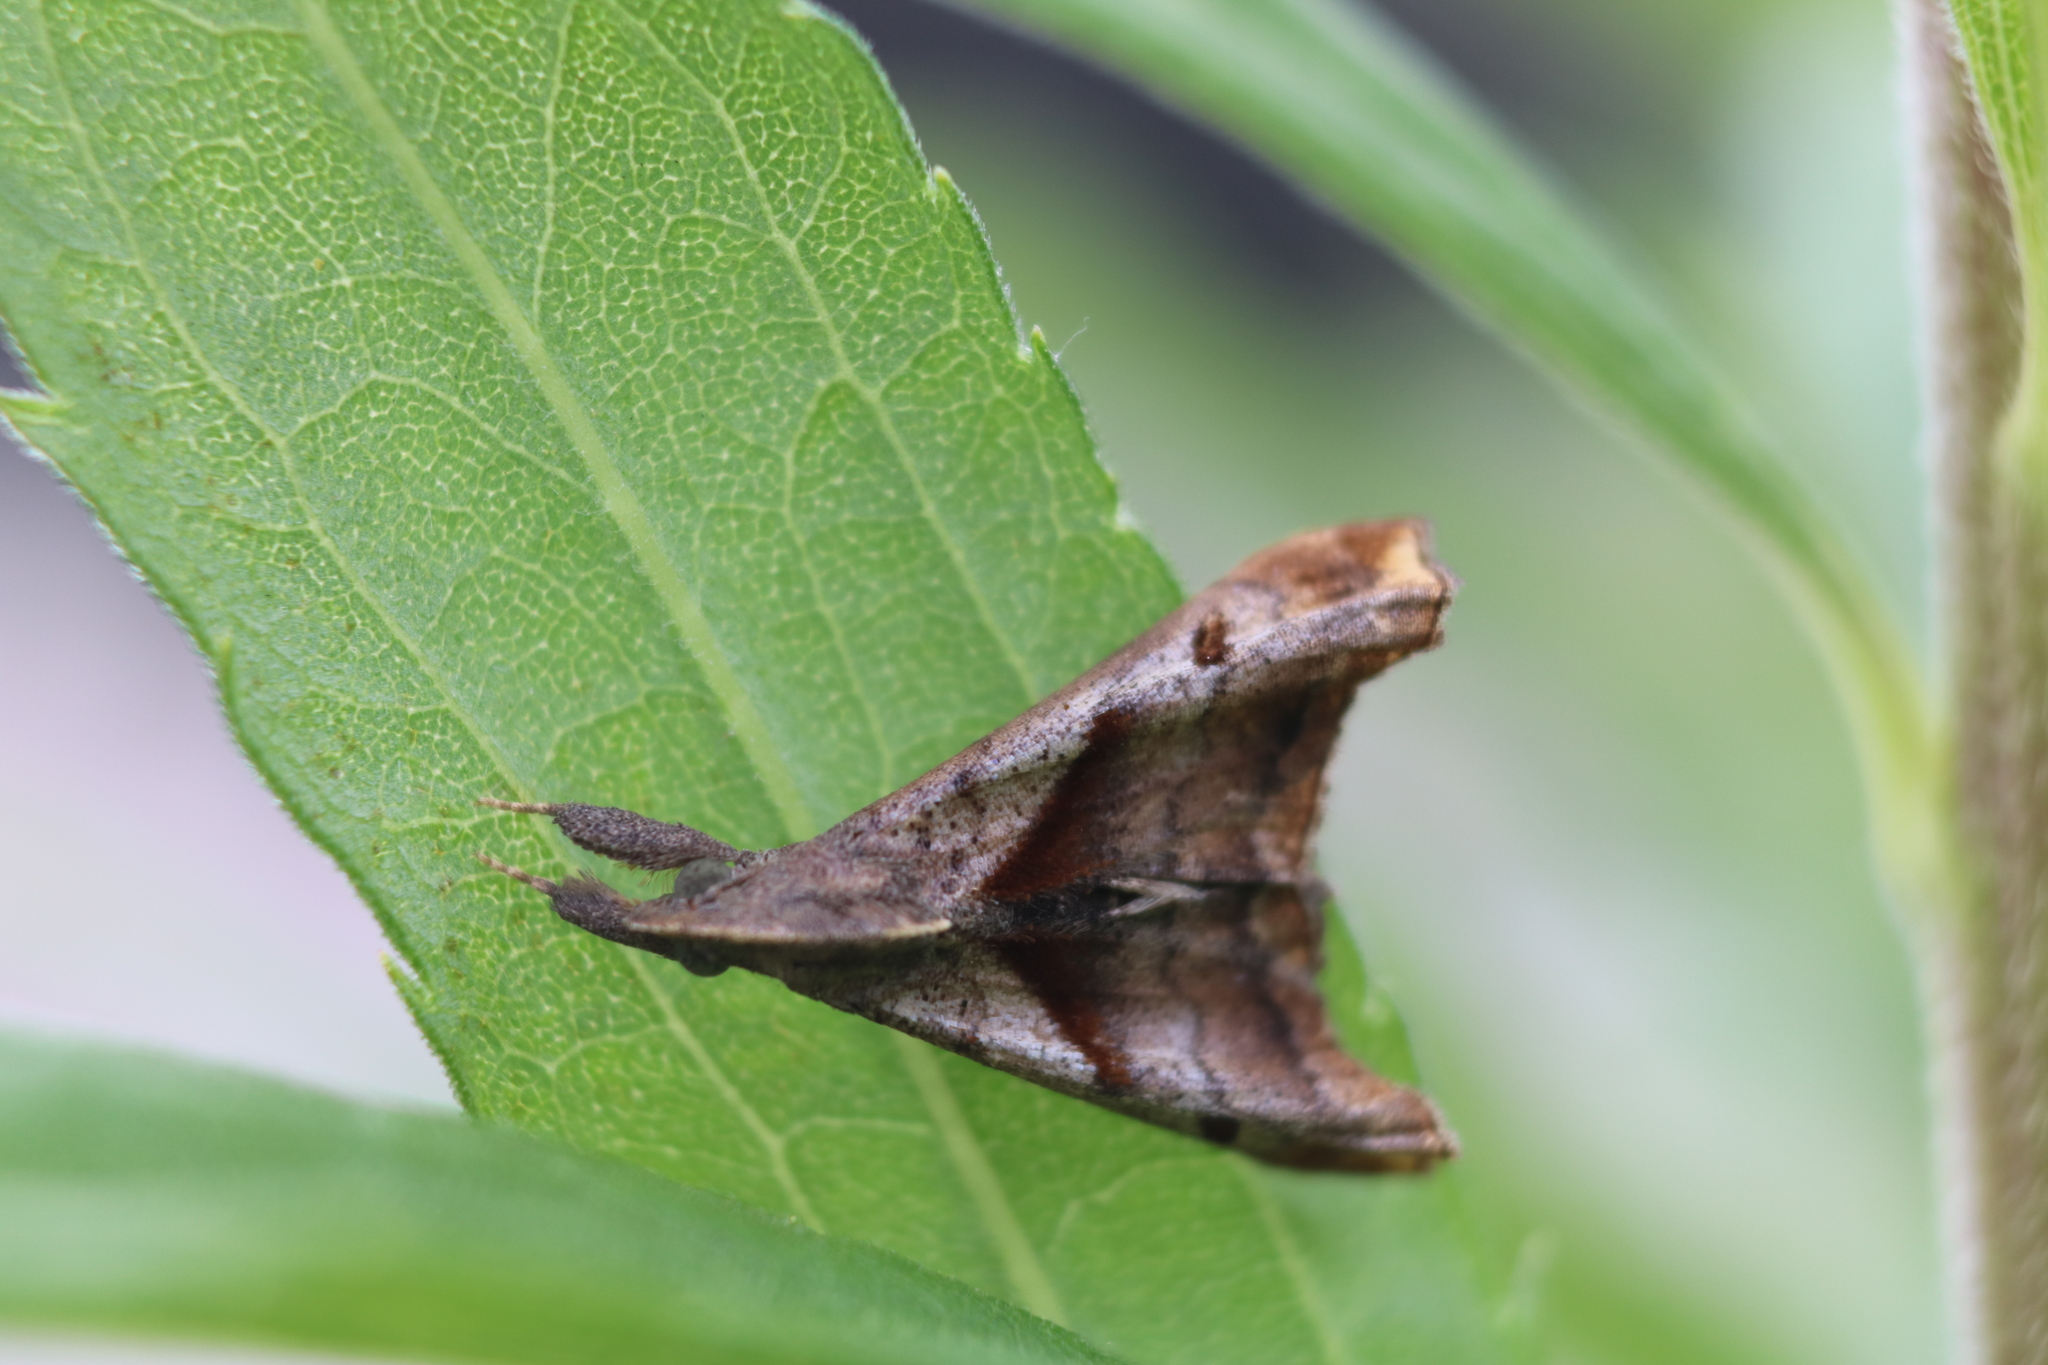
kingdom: Animalia
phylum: Arthropoda
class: Insecta
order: Lepidoptera
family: Erebidae
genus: Palthis
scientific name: Palthis angulalis
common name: Dark-spotted palthis moth
